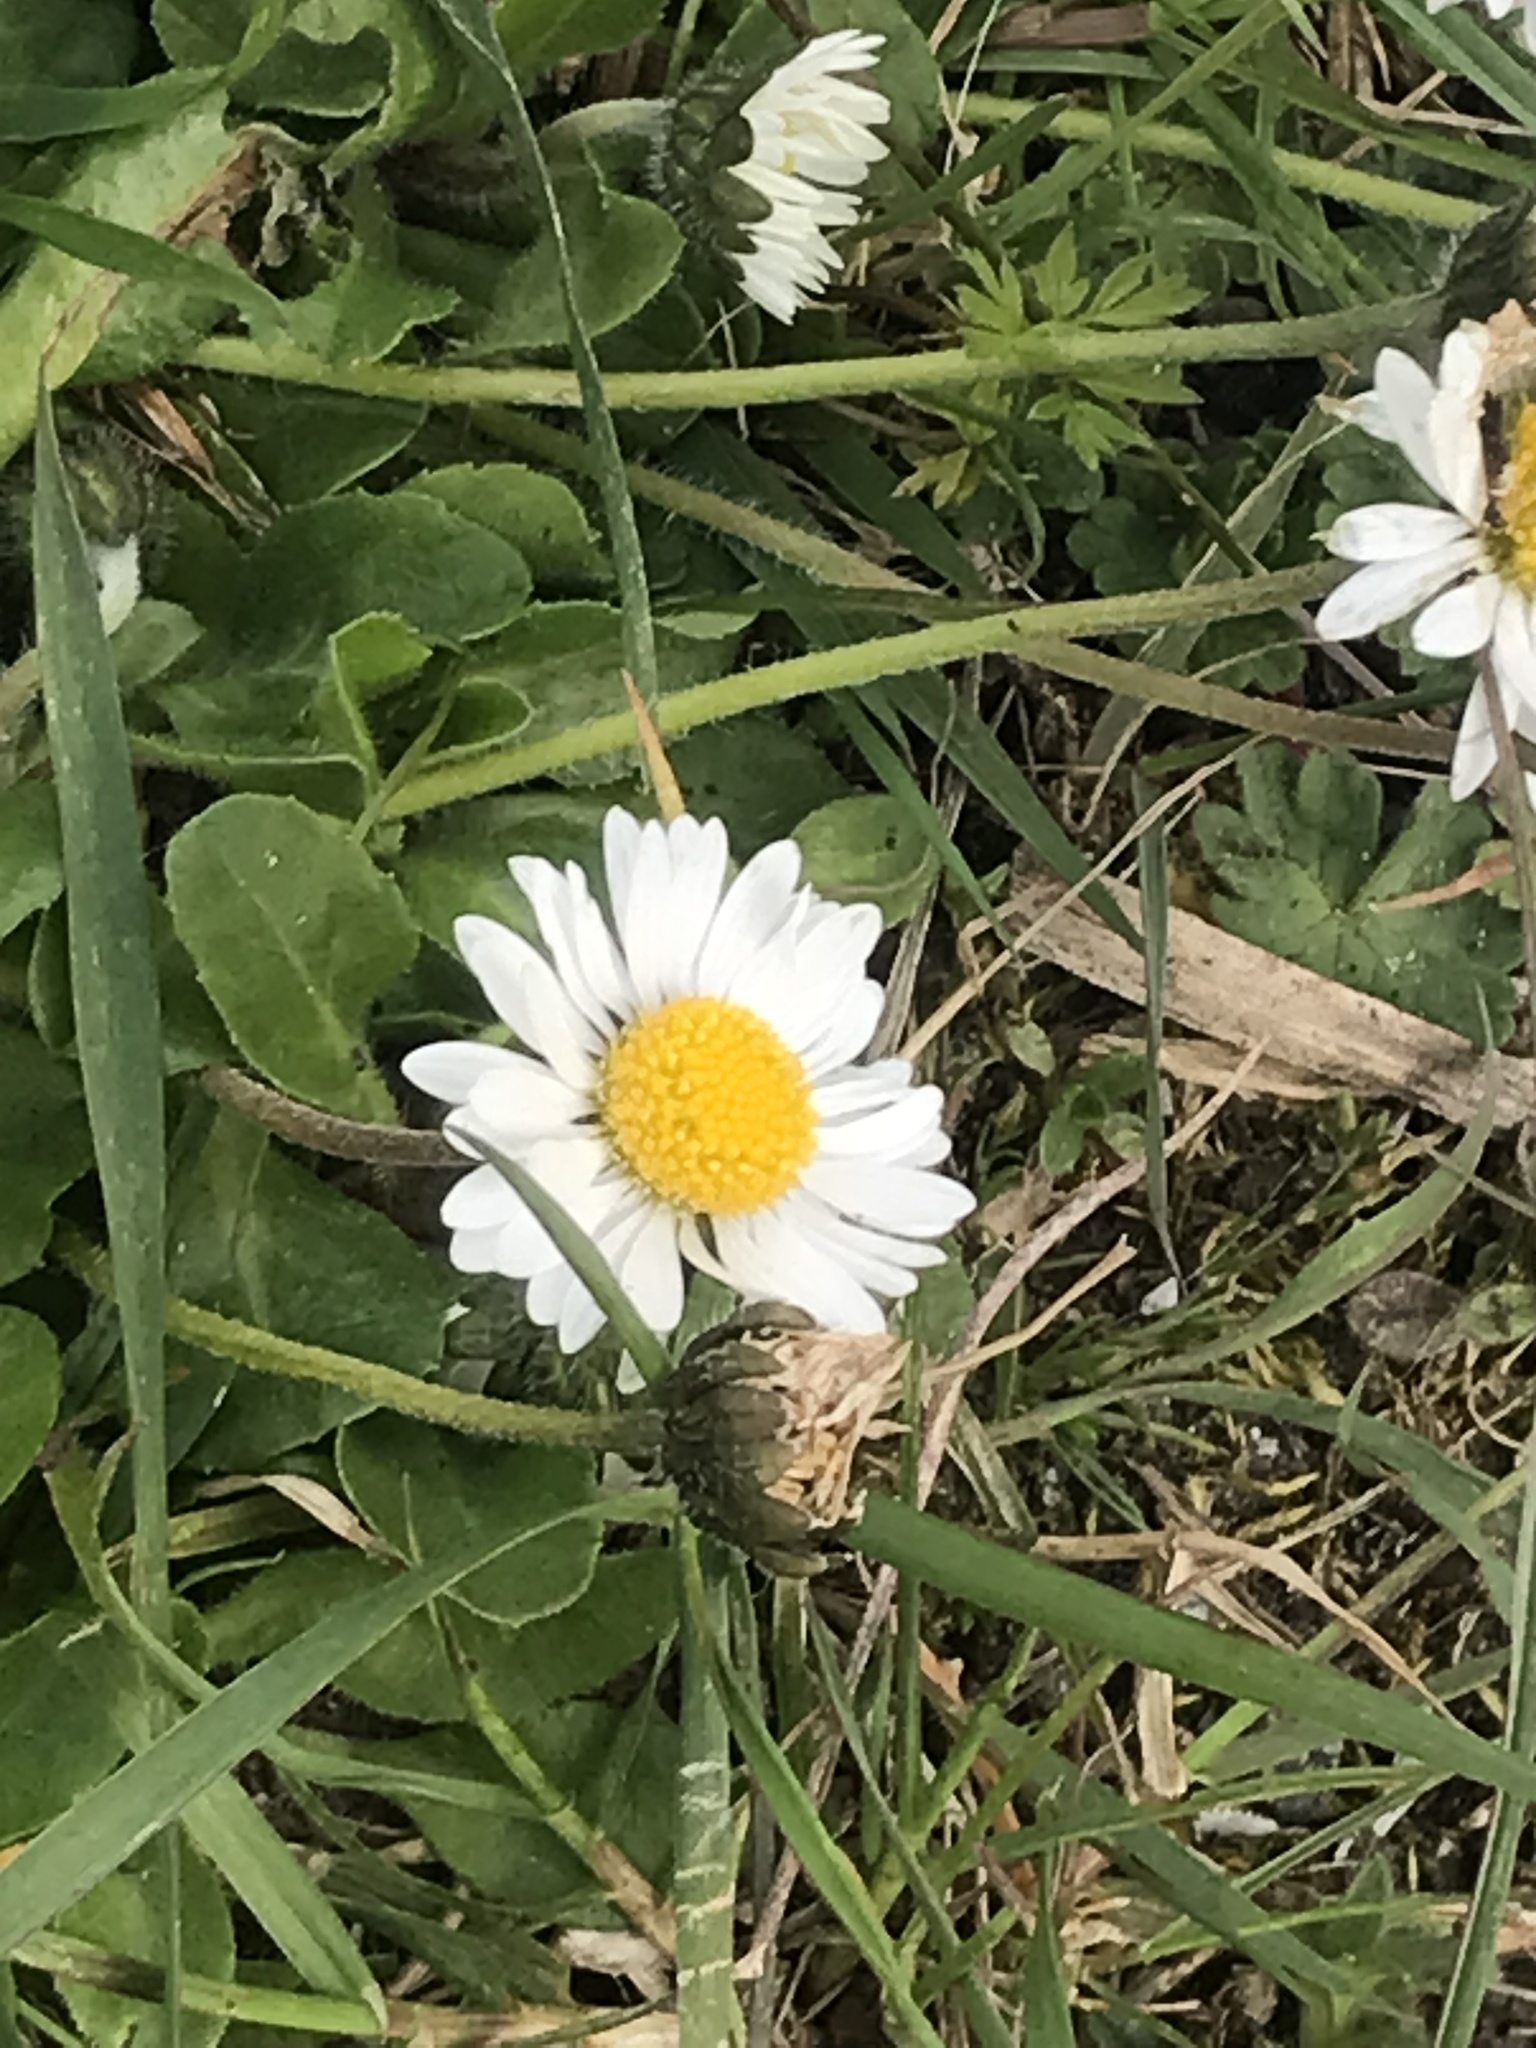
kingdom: Plantae
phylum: Tracheophyta
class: Magnoliopsida
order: Asterales
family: Asteraceae
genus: Bellis
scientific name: Bellis perennis
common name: Lawndaisy
